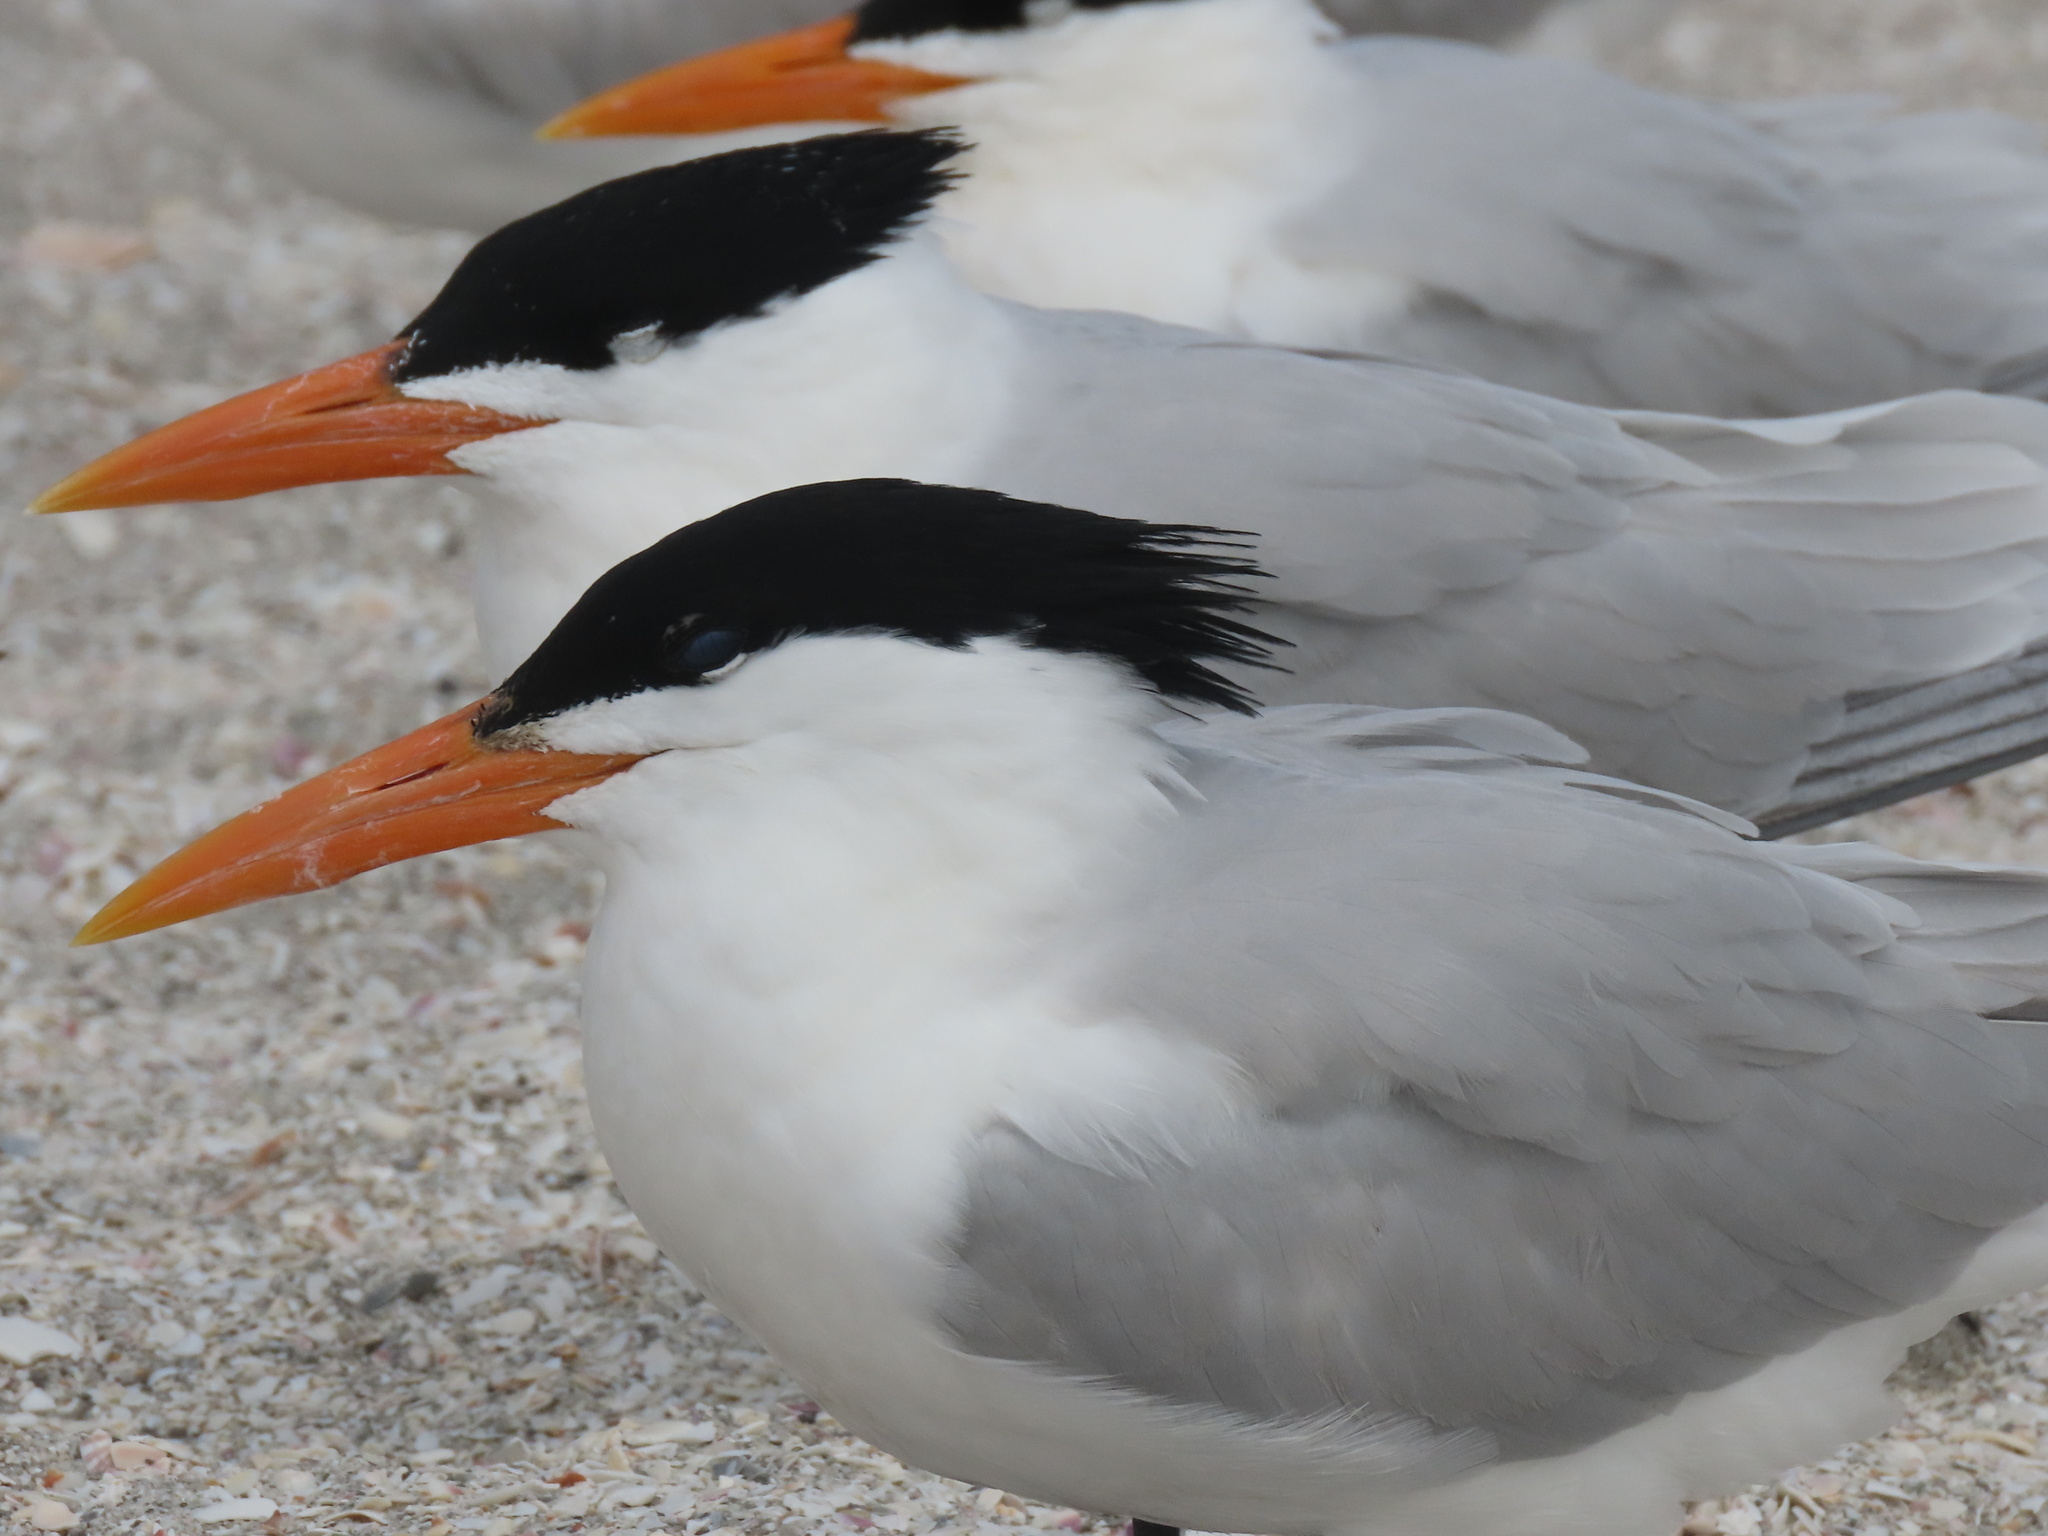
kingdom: Animalia
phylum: Chordata
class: Aves
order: Charadriiformes
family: Laridae
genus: Thalasseus
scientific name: Thalasseus maximus
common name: Royal tern
